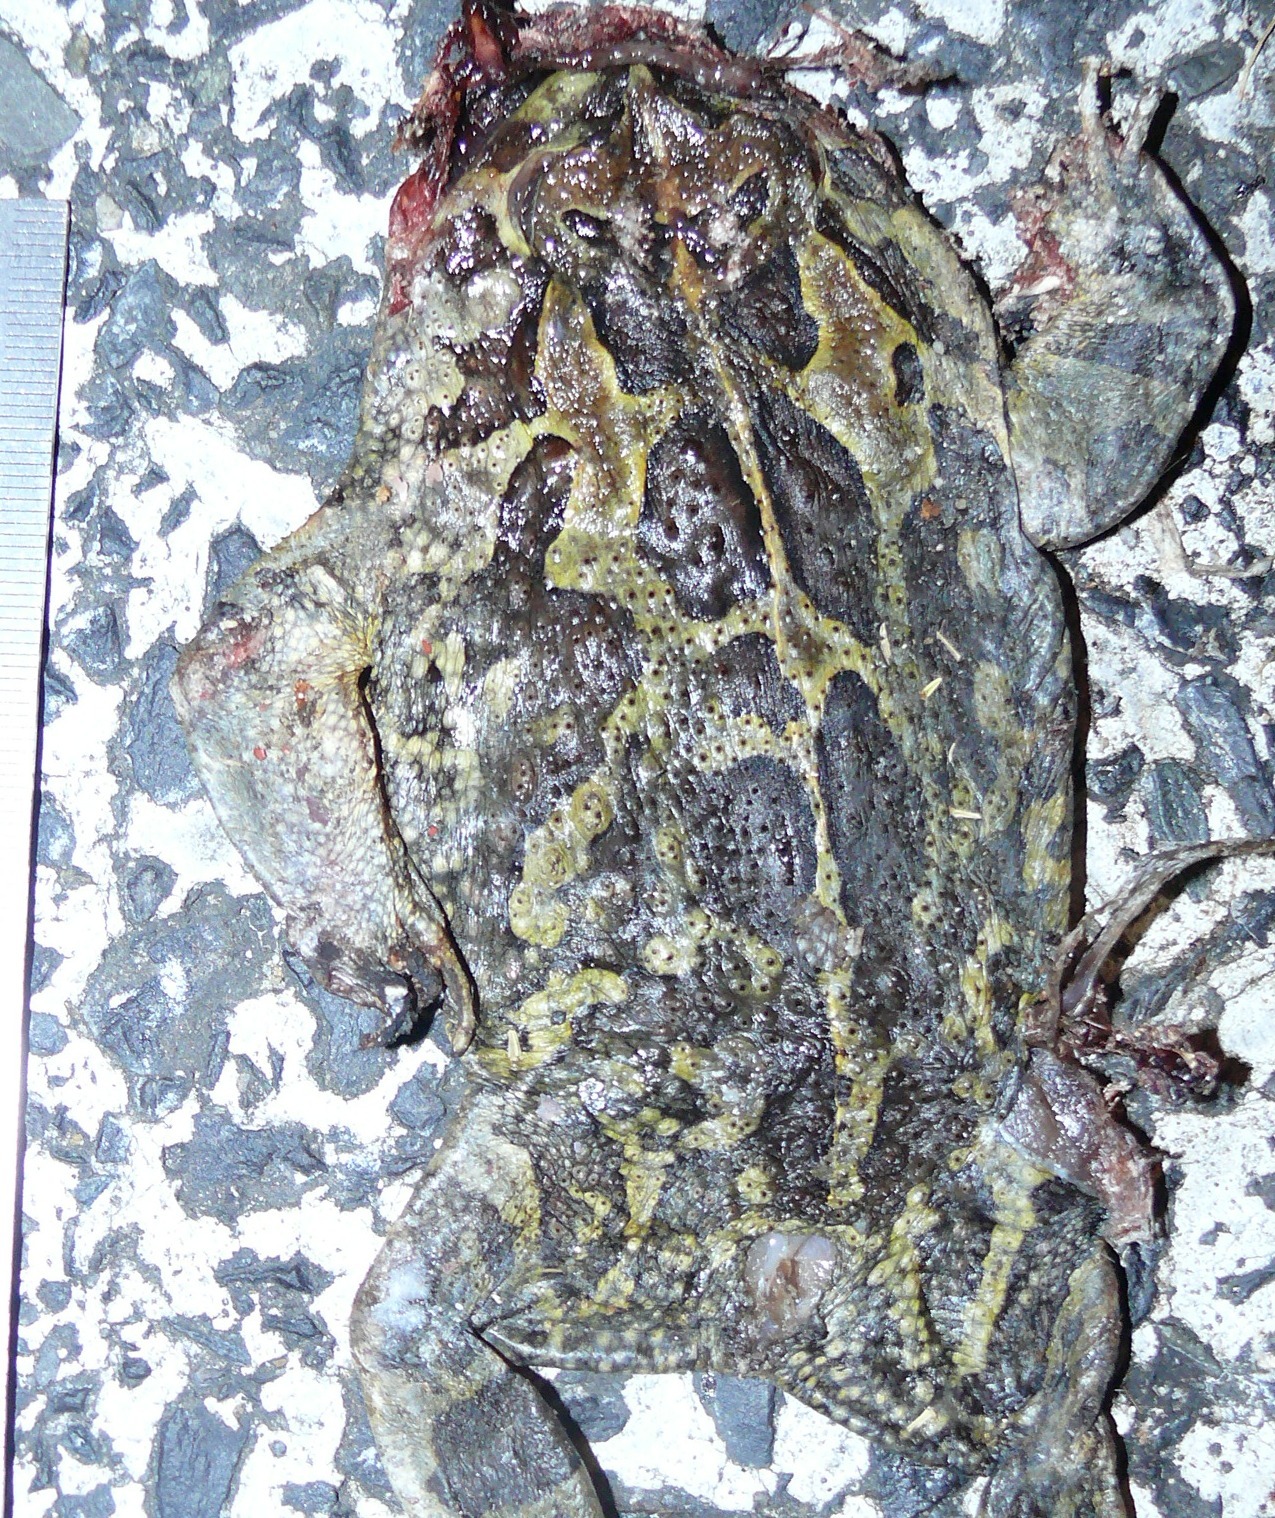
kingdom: Animalia
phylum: Chordata
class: Amphibia
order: Anura
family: Bufonidae
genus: Sclerophrys
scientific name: Sclerophrys pantherina
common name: Panther toad
